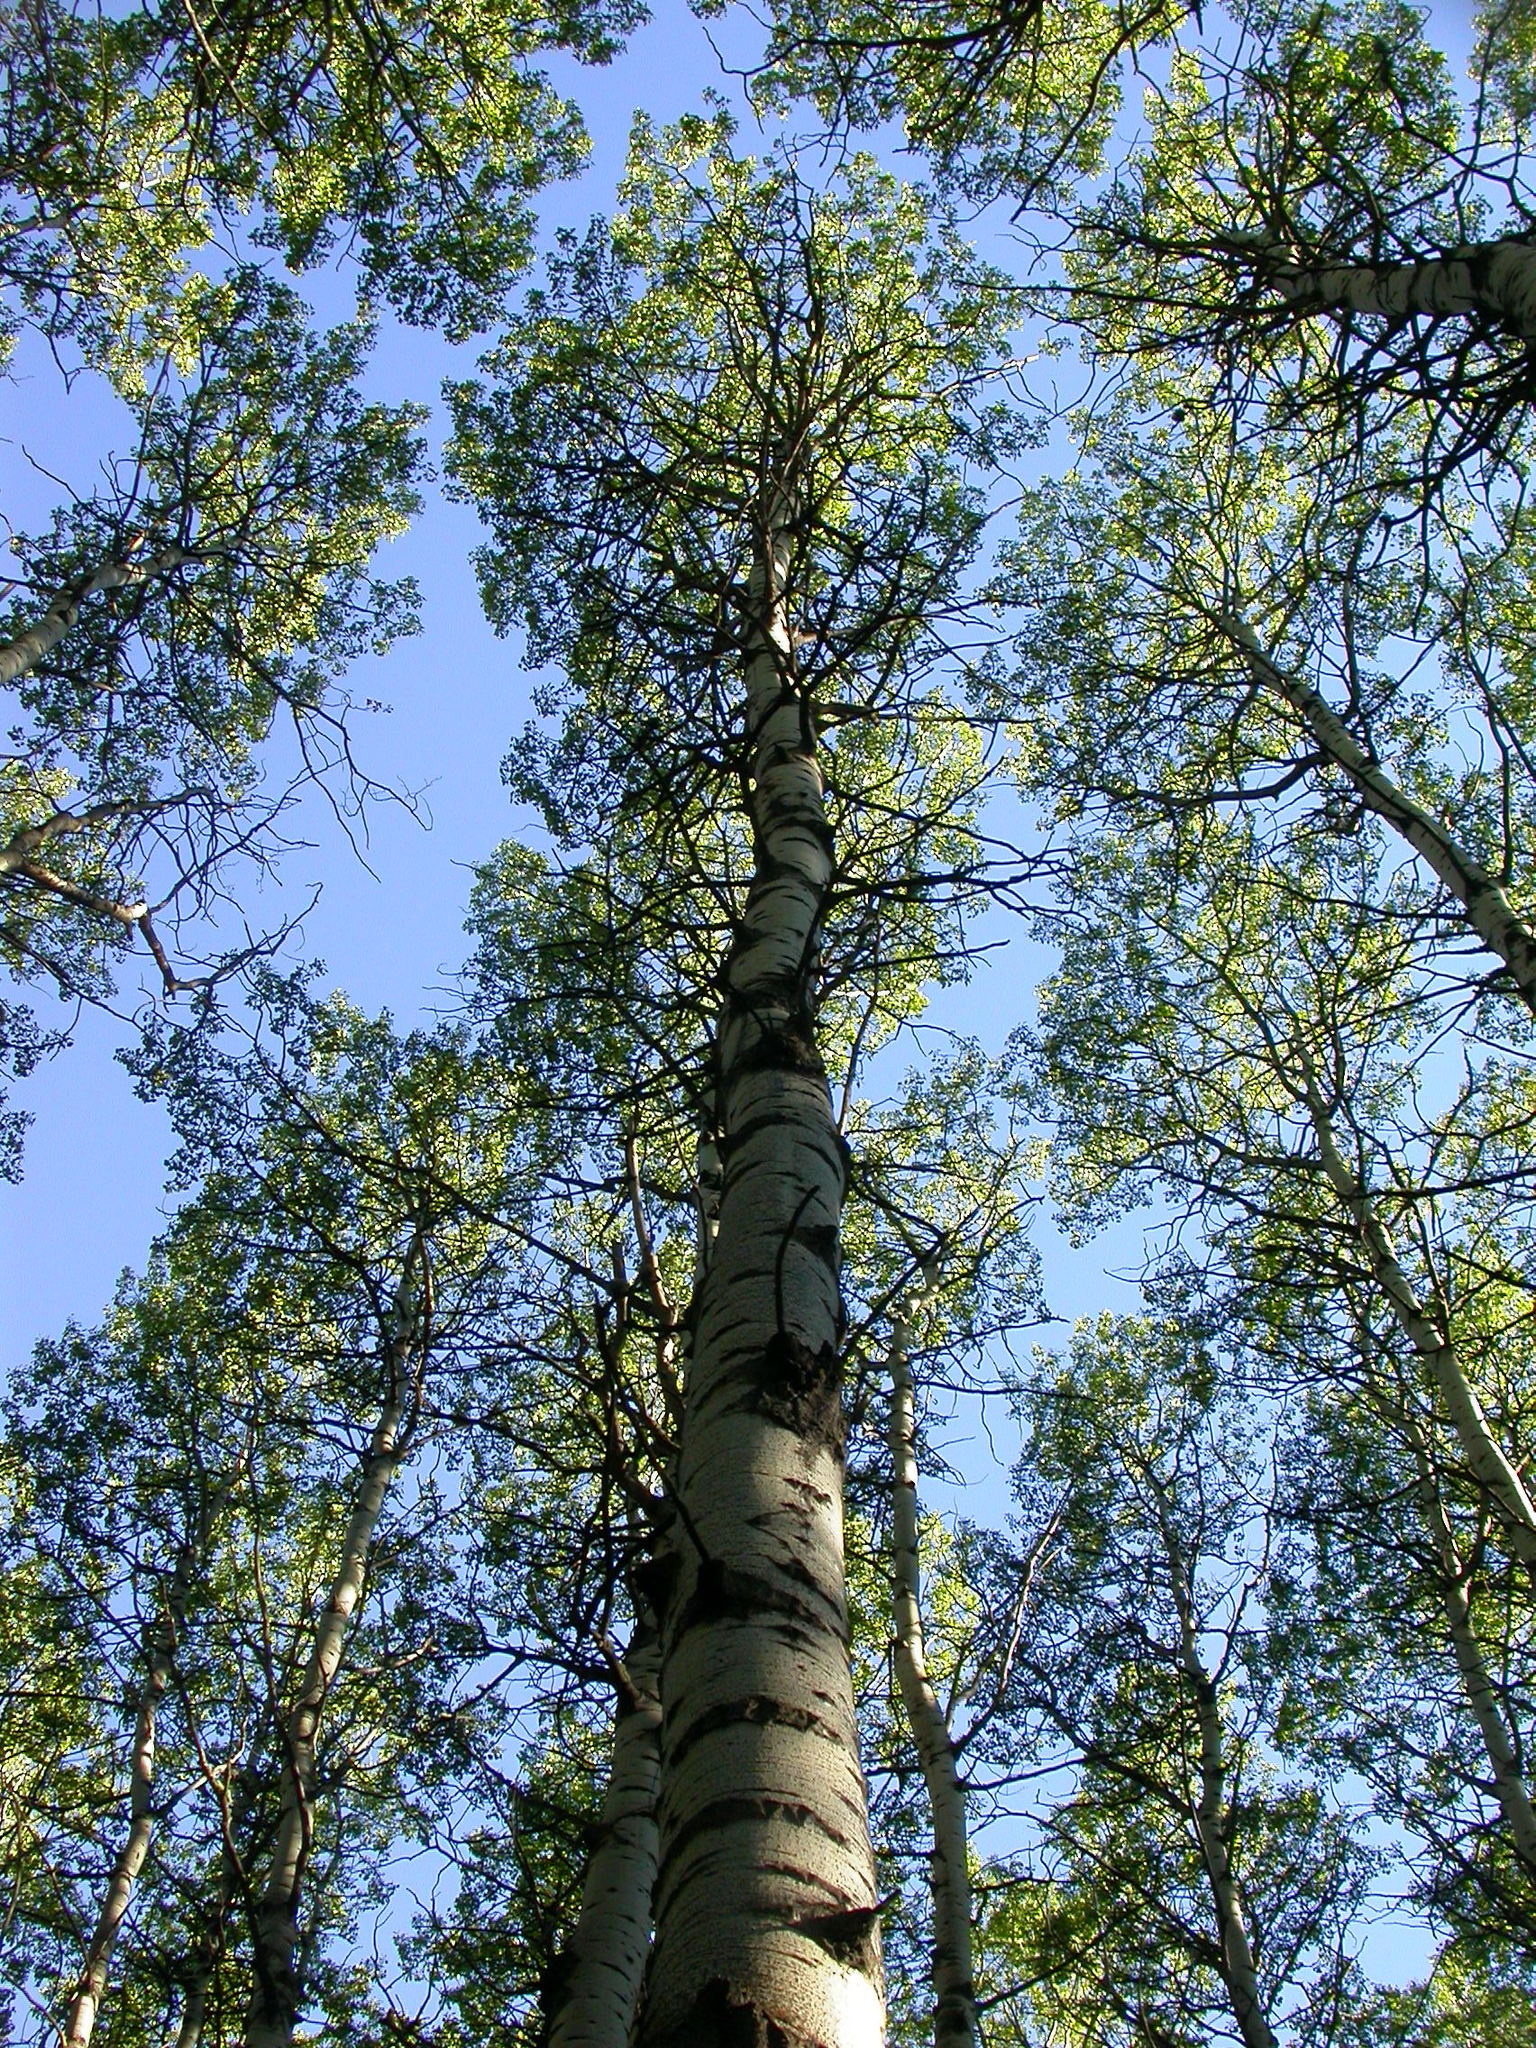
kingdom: Plantae
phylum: Tracheophyta
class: Magnoliopsida
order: Malpighiales
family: Salicaceae
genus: Populus
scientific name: Populus tremuloides
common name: Quaking aspen
